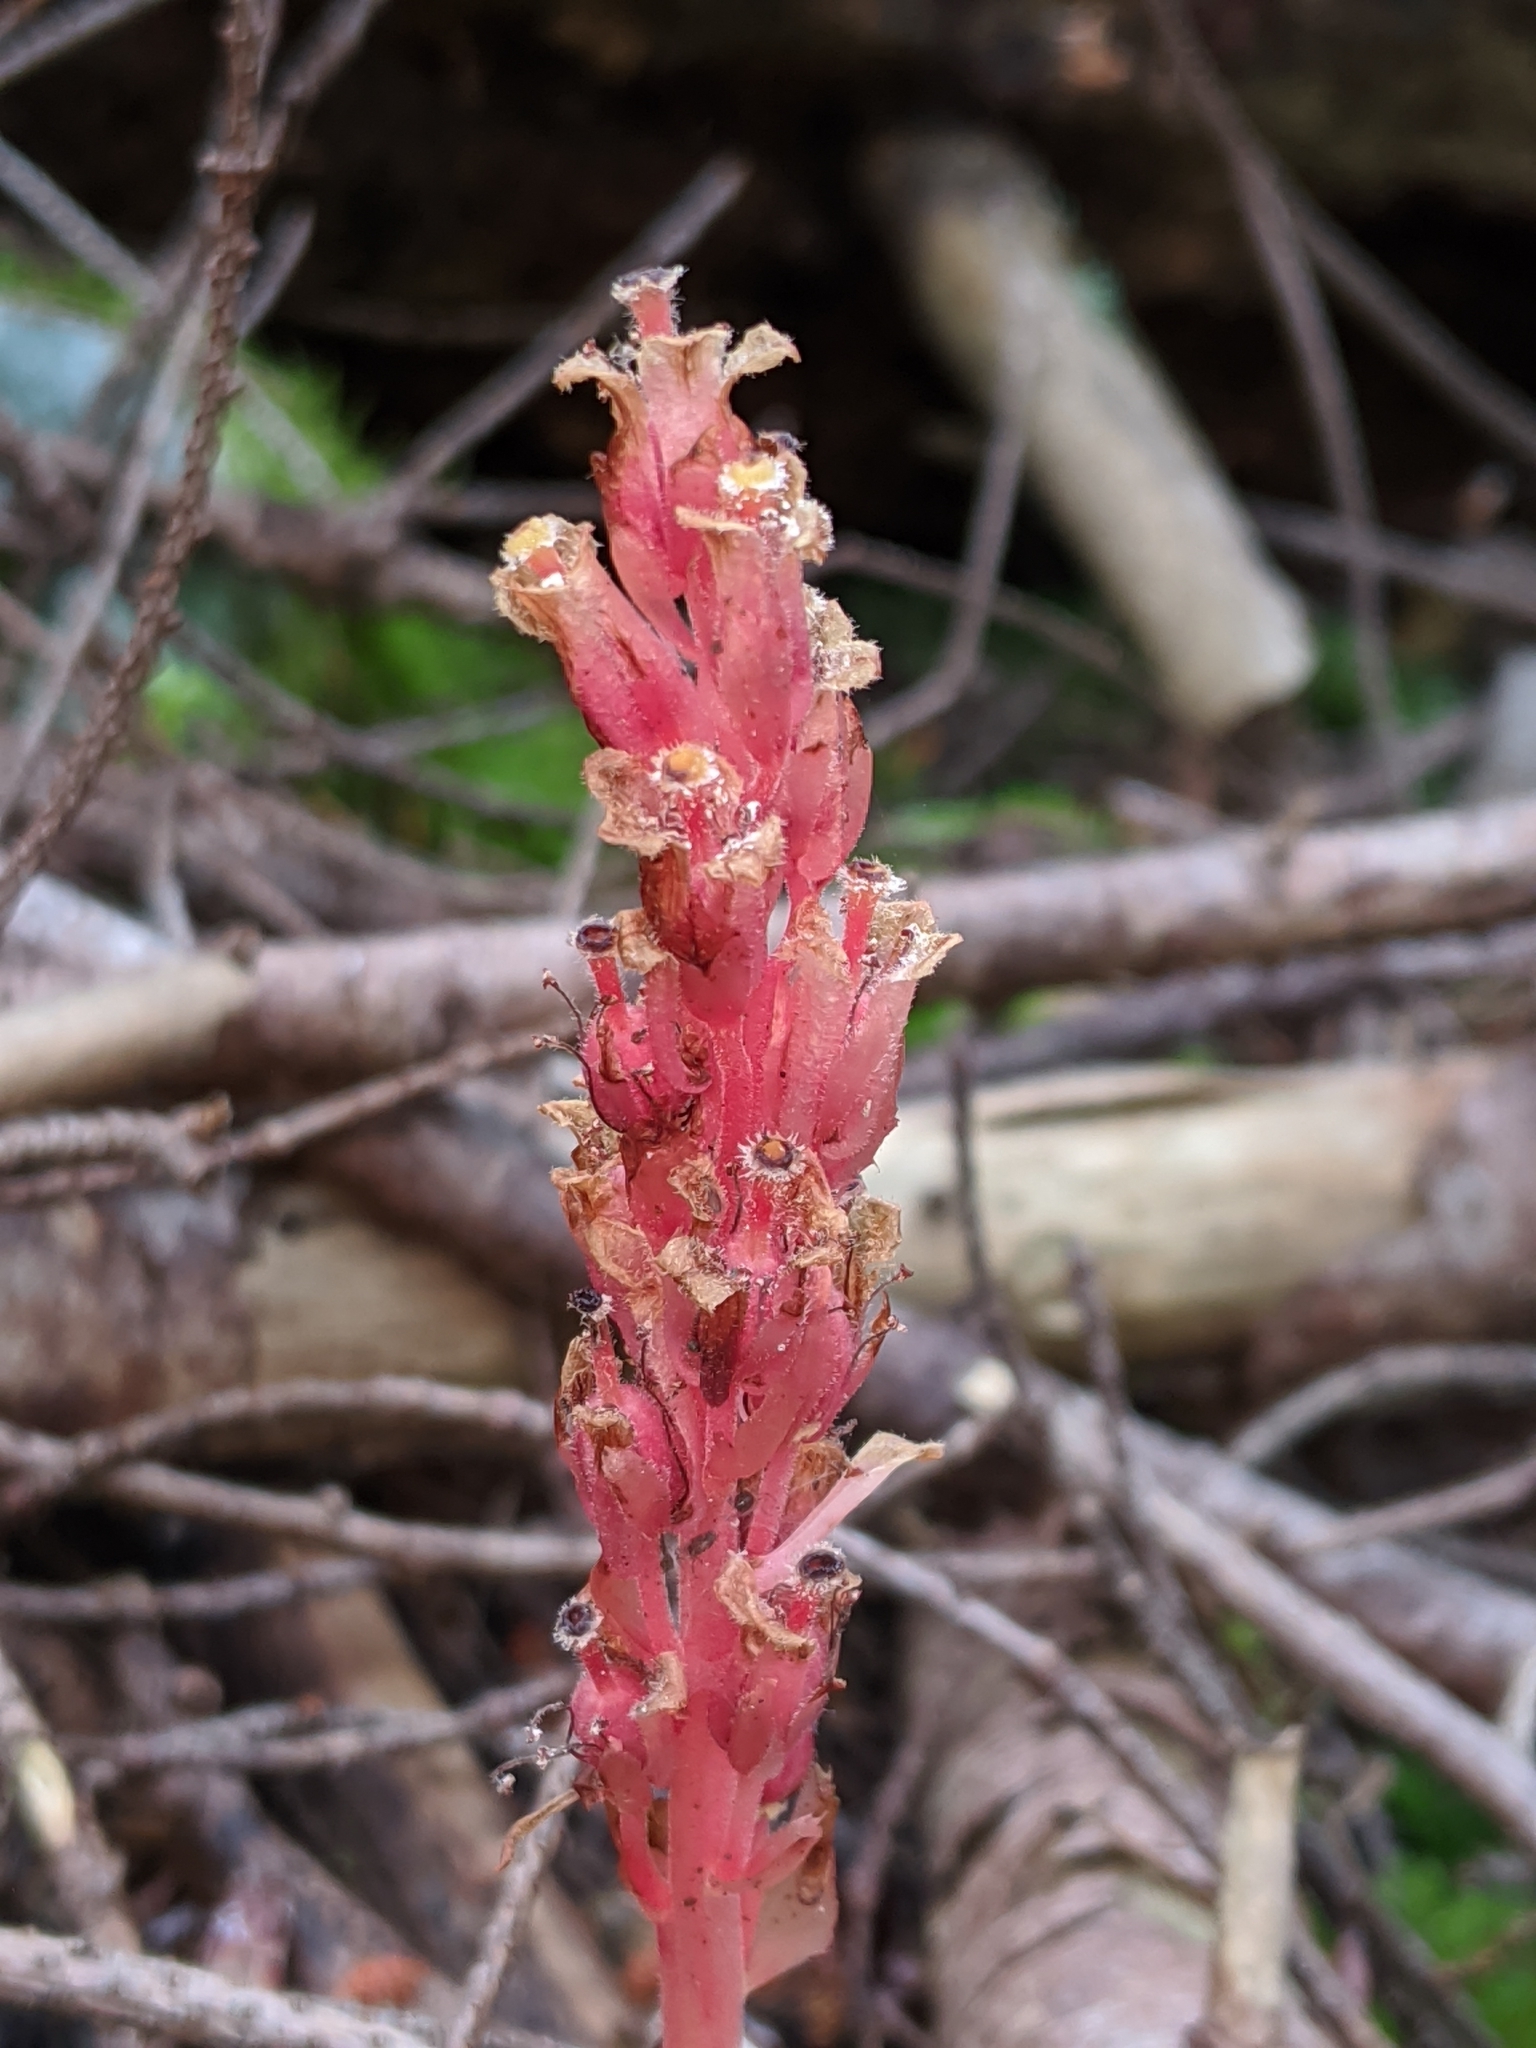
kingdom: Plantae
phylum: Tracheophyta
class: Magnoliopsida
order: Ericales
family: Ericaceae
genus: Hypopitys
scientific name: Hypopitys monotropa
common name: Yellow bird's-nest
